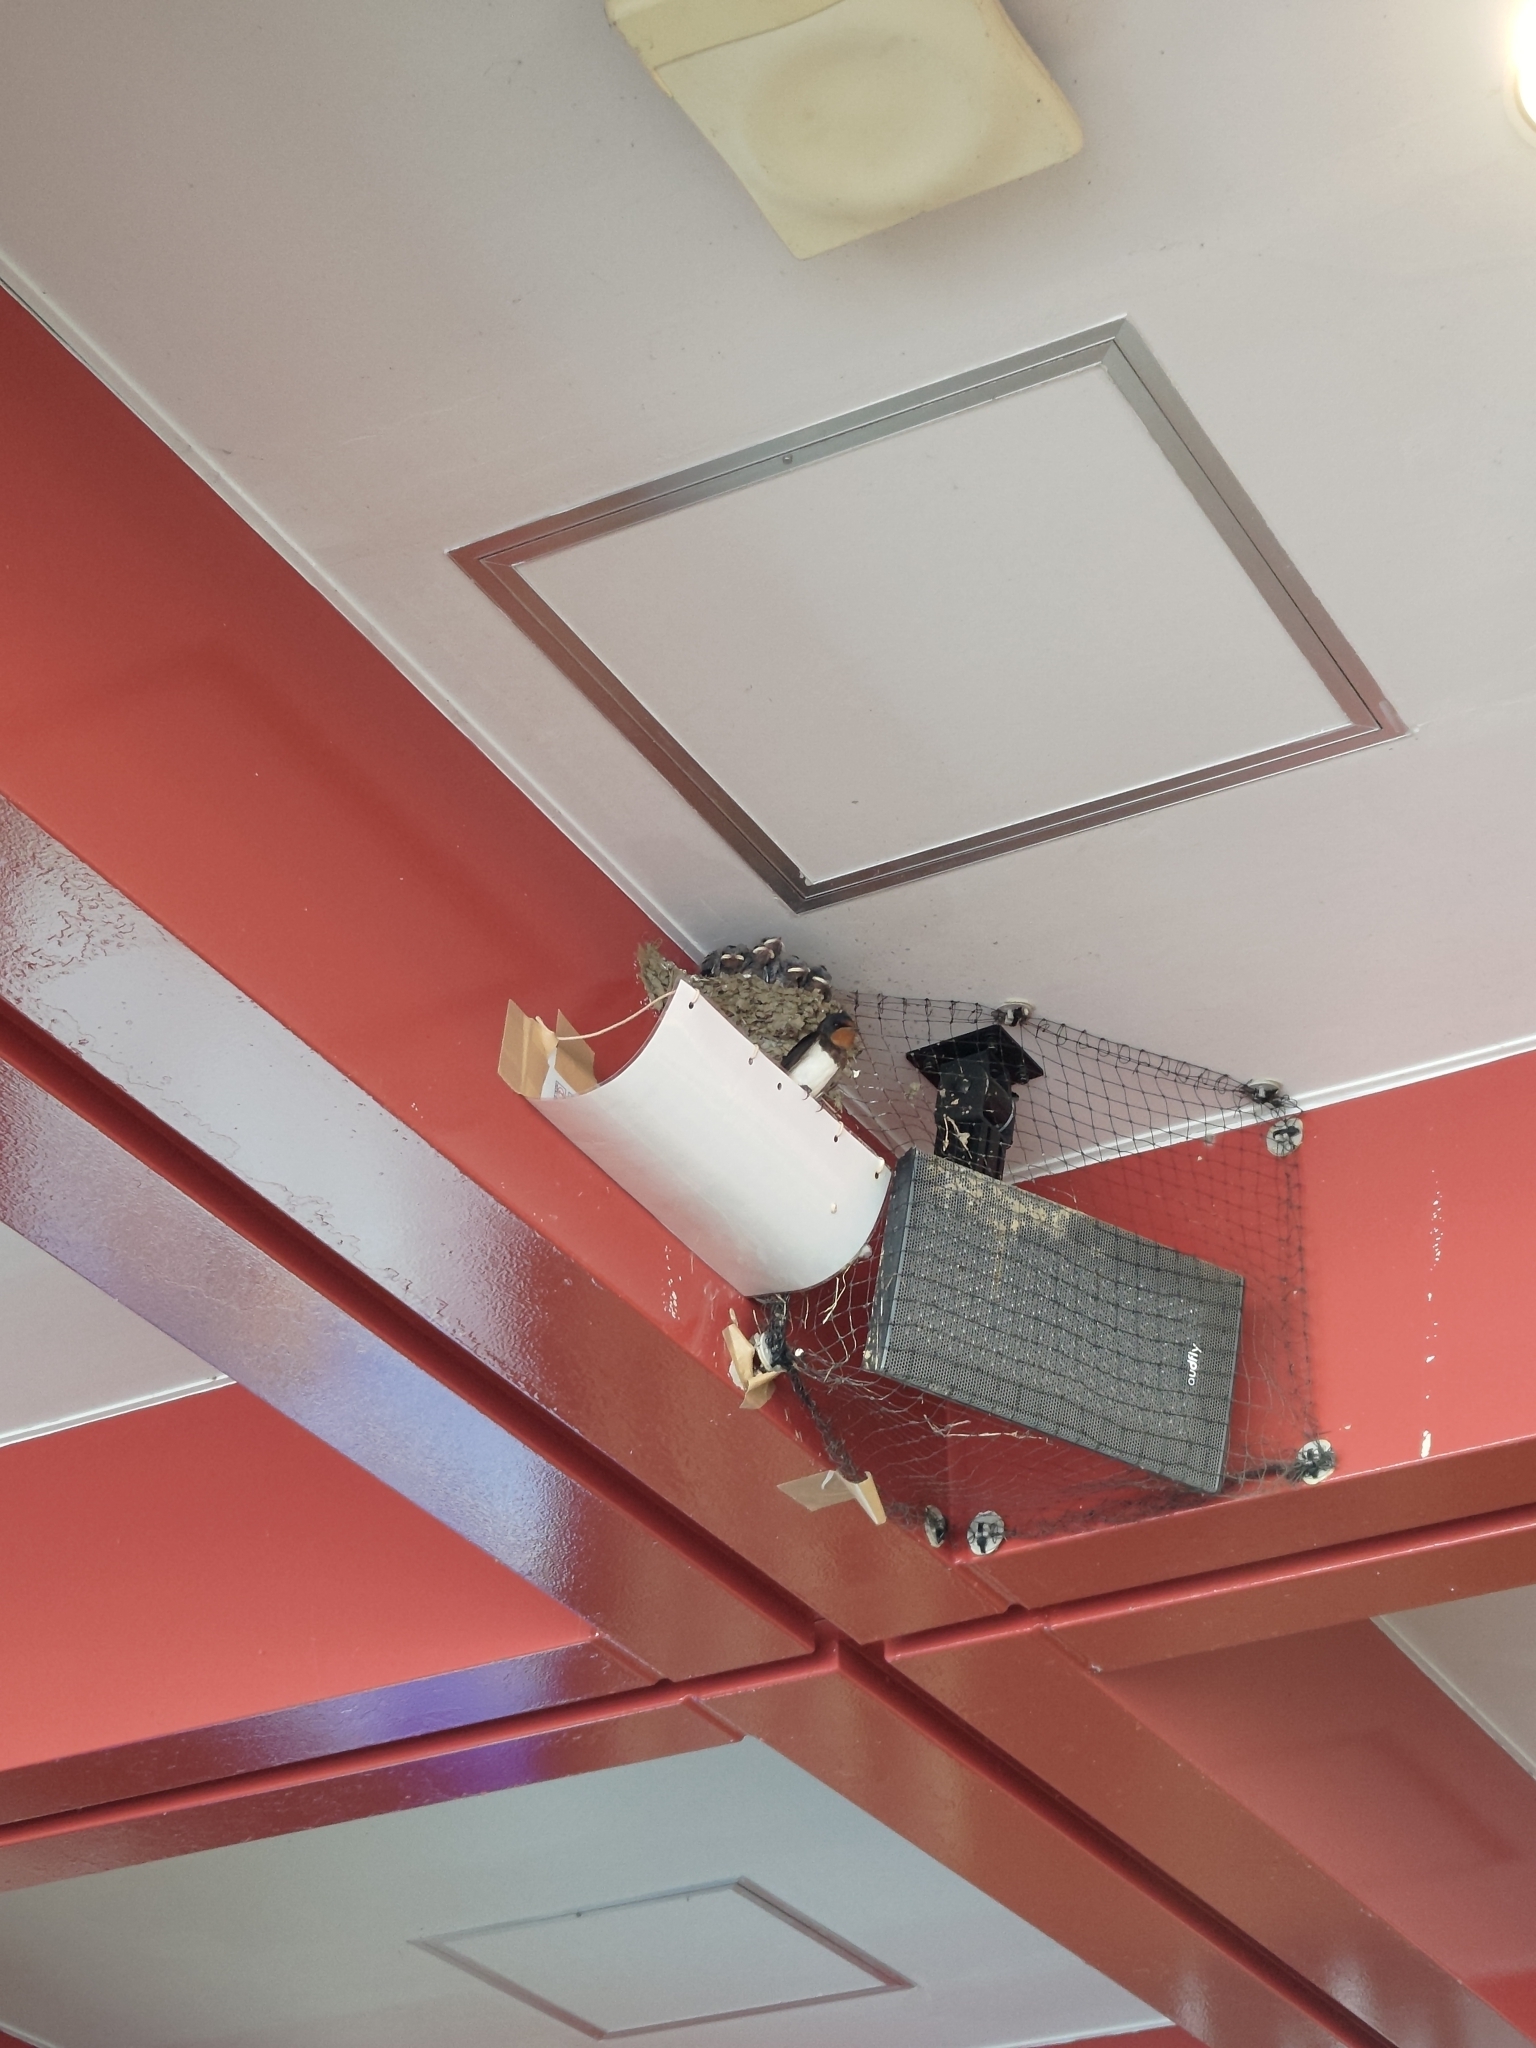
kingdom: Animalia
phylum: Chordata
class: Aves
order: Passeriformes
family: Hirundinidae
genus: Hirundo
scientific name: Hirundo rustica
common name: Barn swallow
